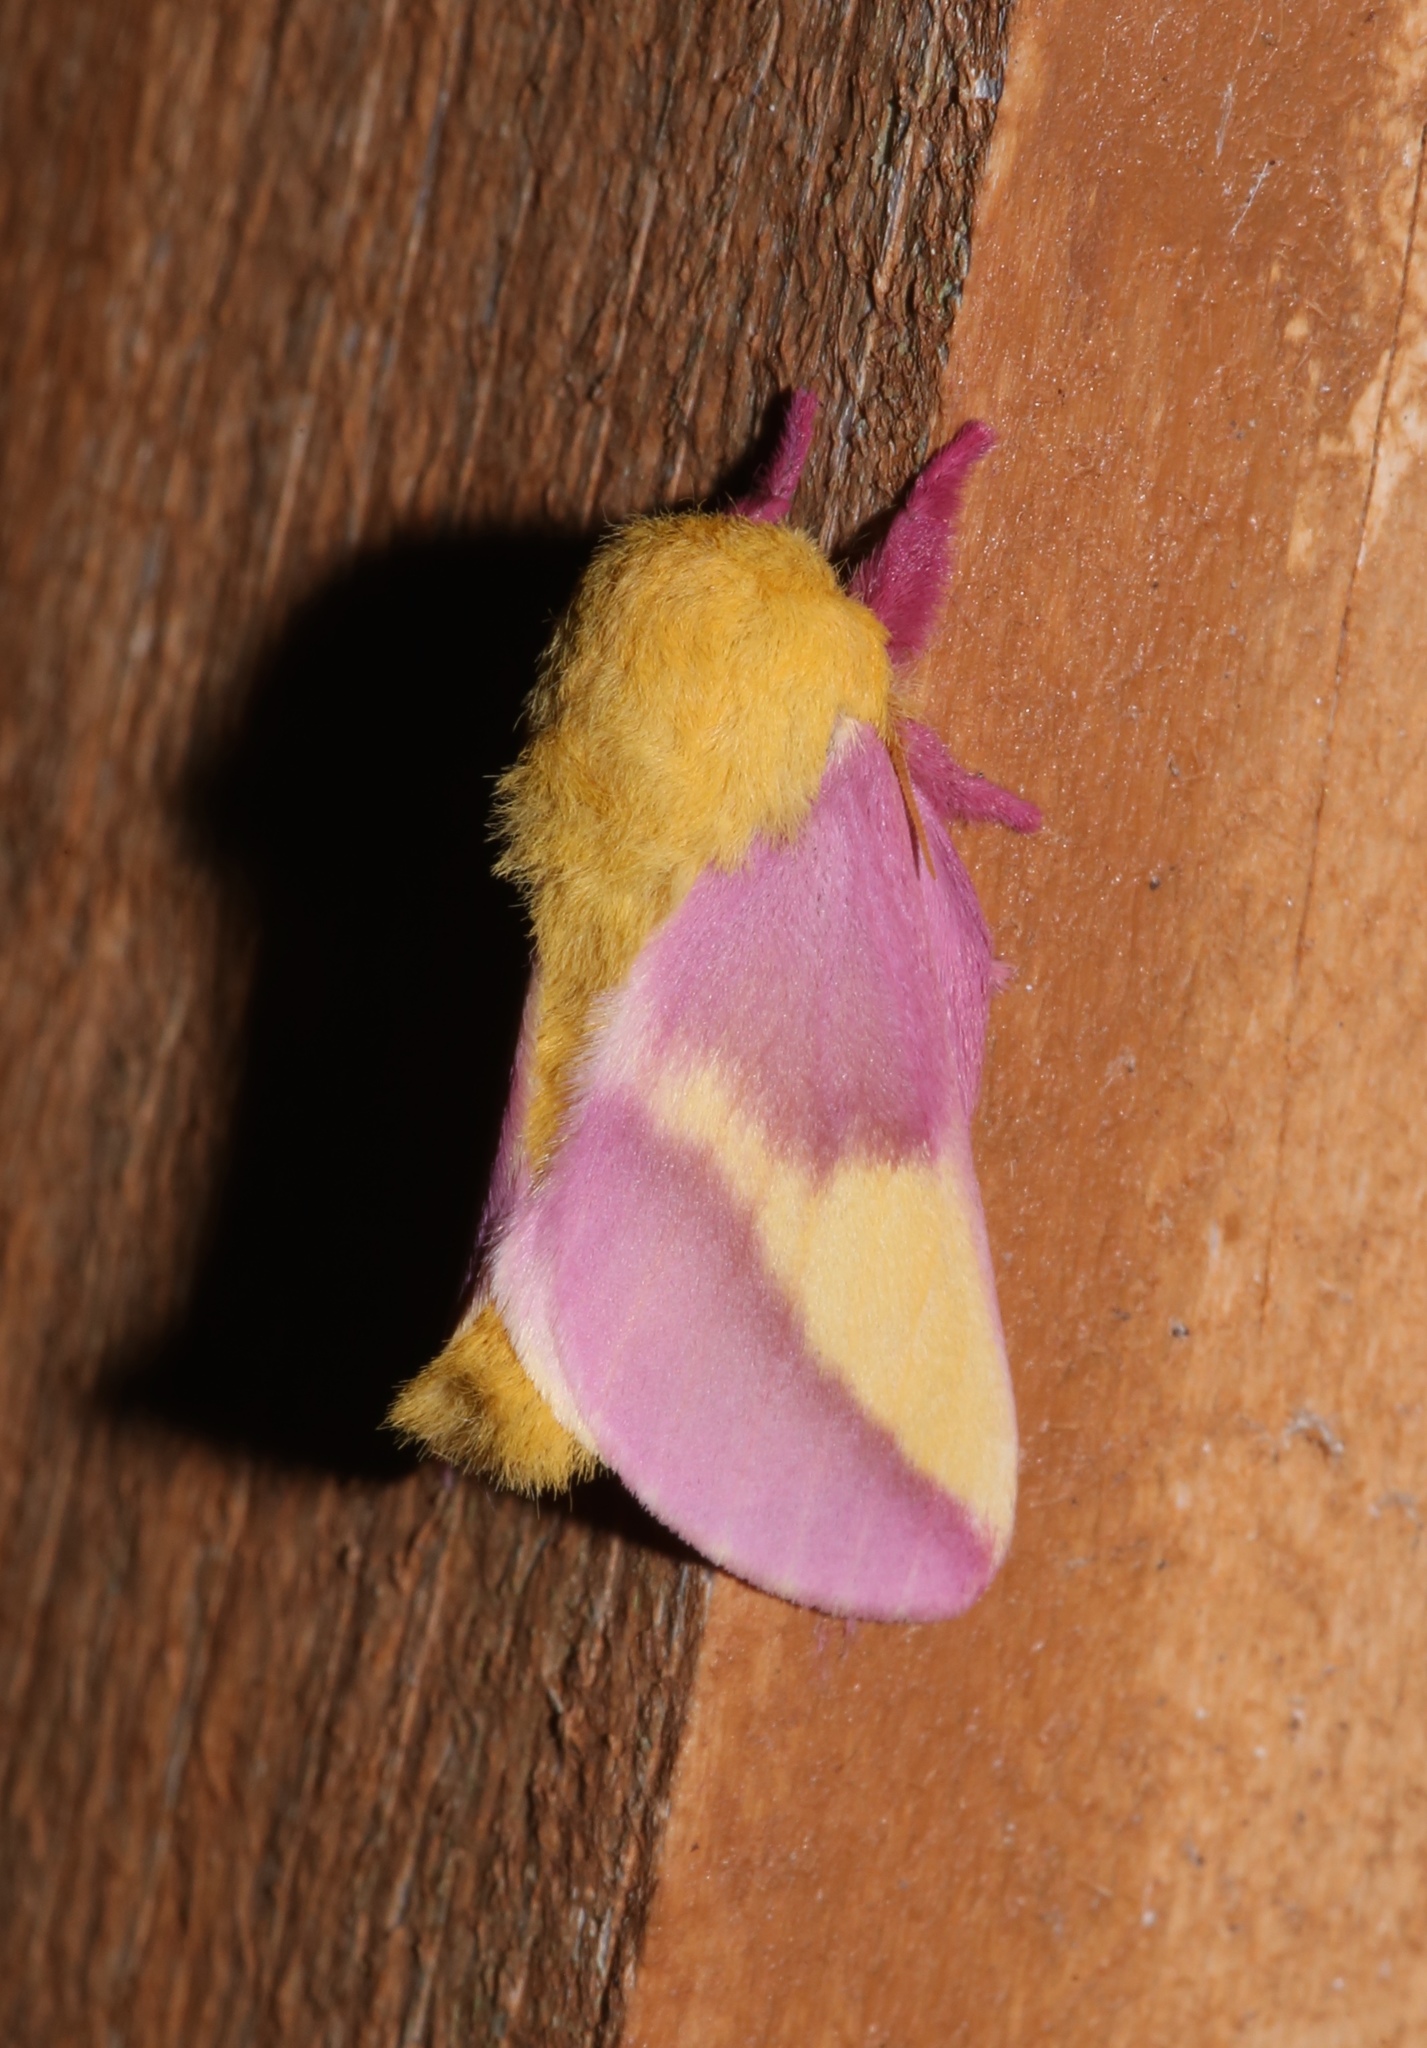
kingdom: Animalia
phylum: Arthropoda
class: Insecta
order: Lepidoptera
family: Saturniidae
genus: Dryocampa
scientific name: Dryocampa rubicunda
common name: Rosy maple moth
